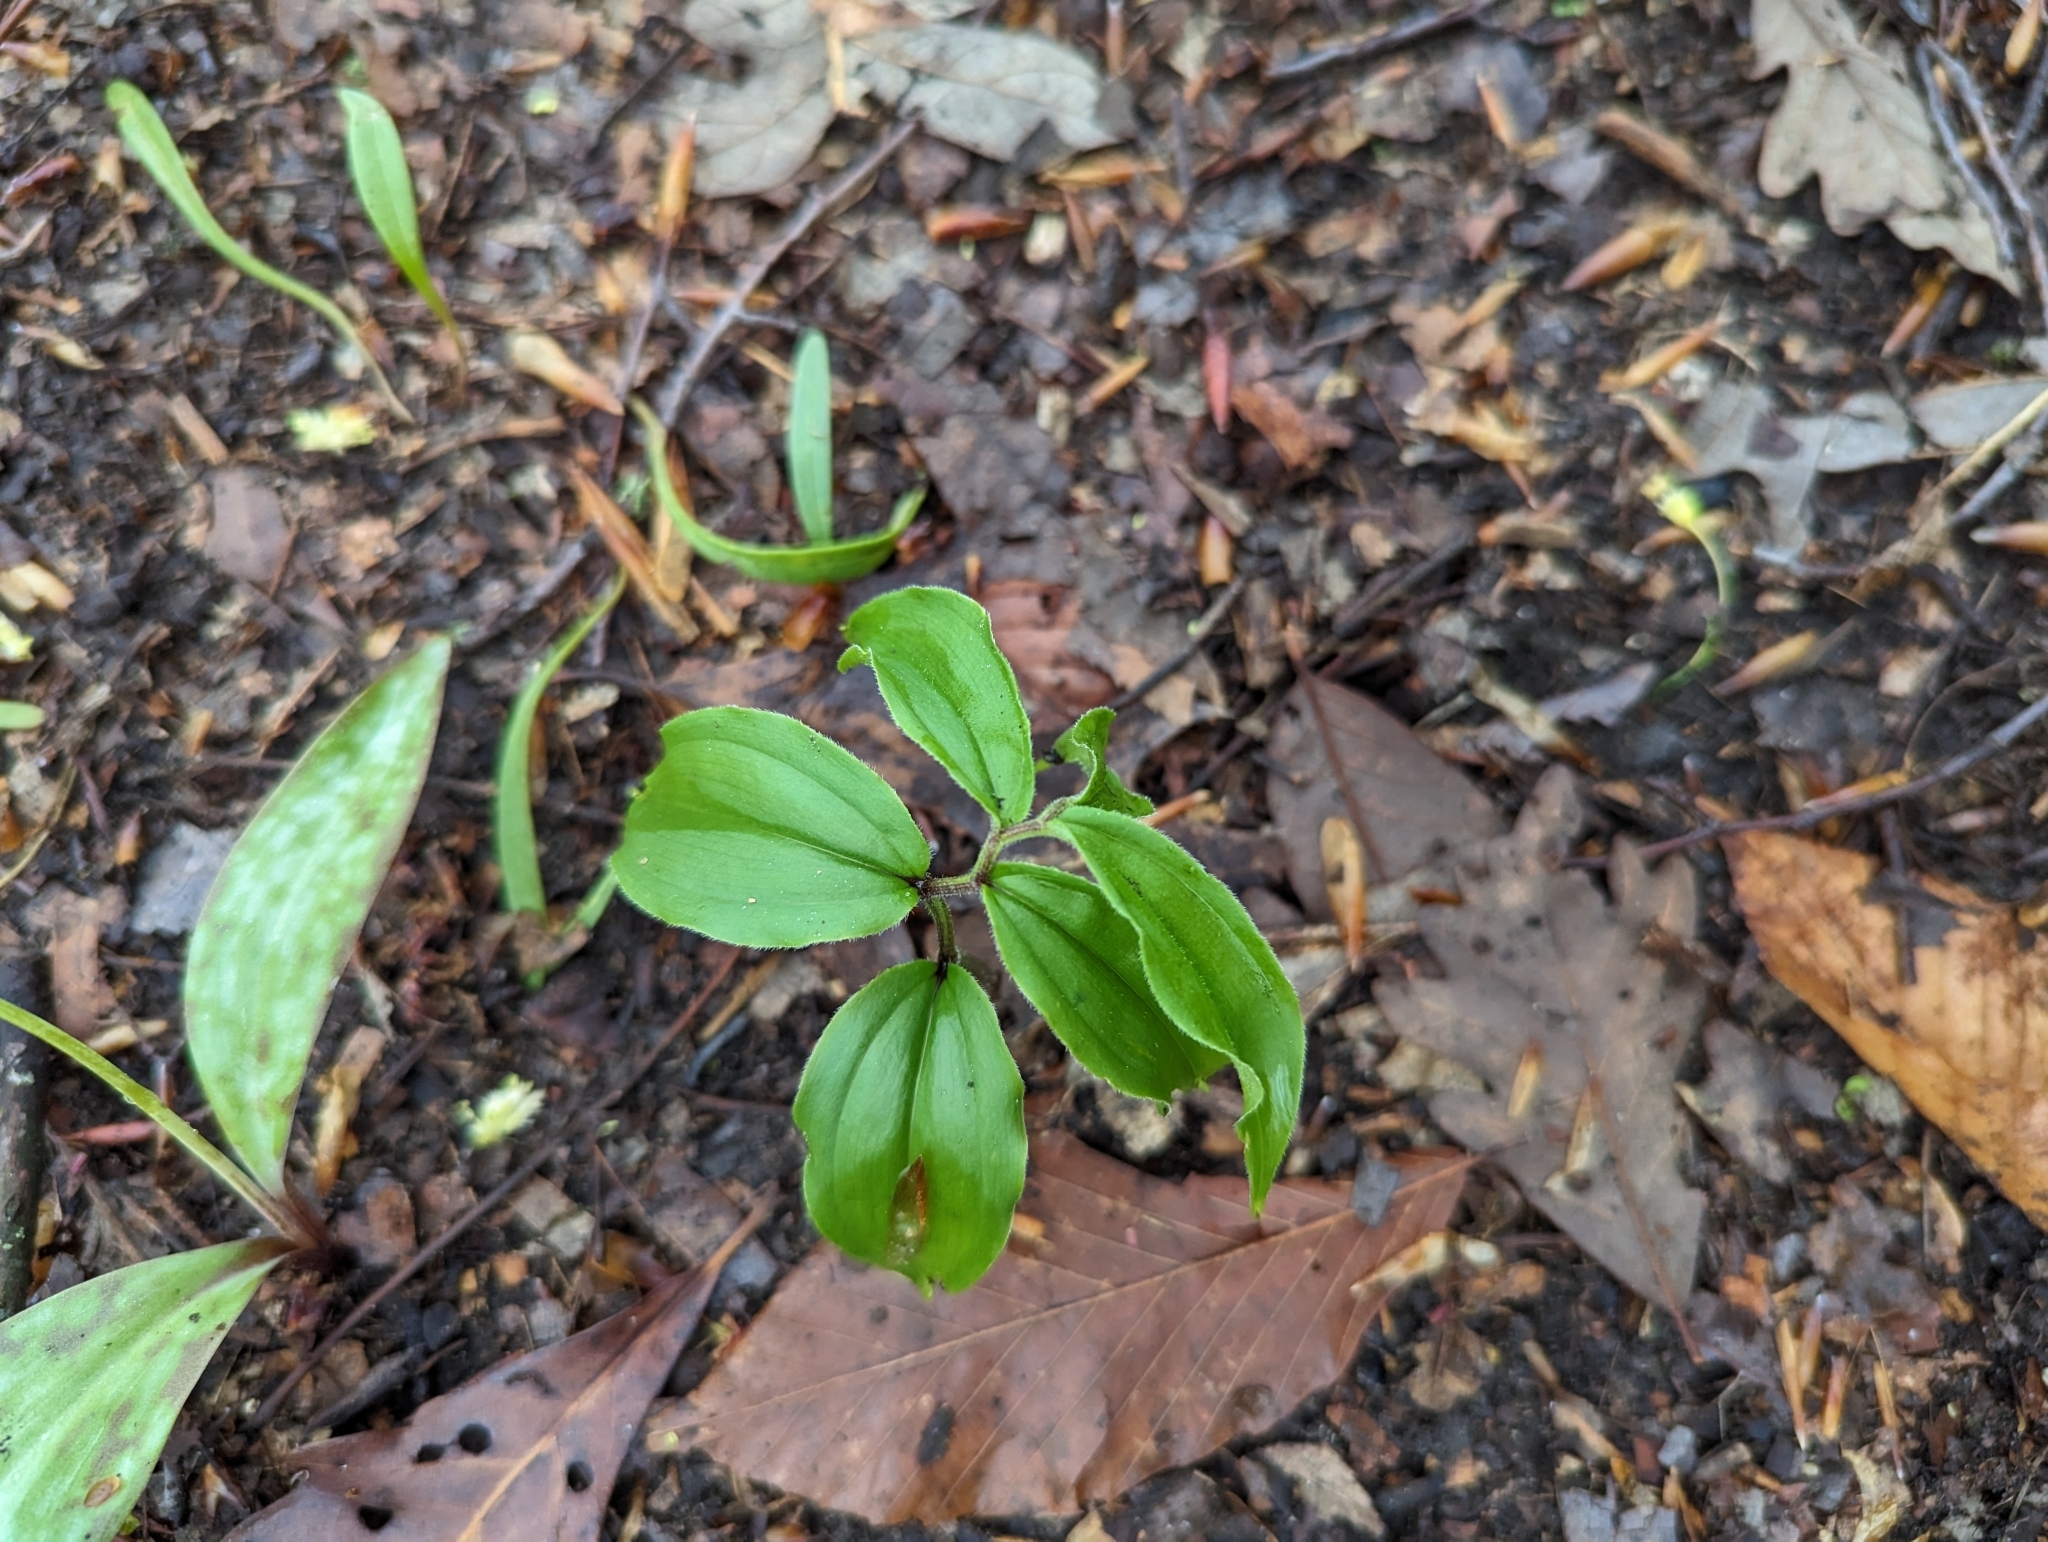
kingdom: Plantae
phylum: Tracheophyta
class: Liliopsida
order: Asparagales
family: Asparagaceae
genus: Maianthemum
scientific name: Maianthemum racemosum
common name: False spikenard
